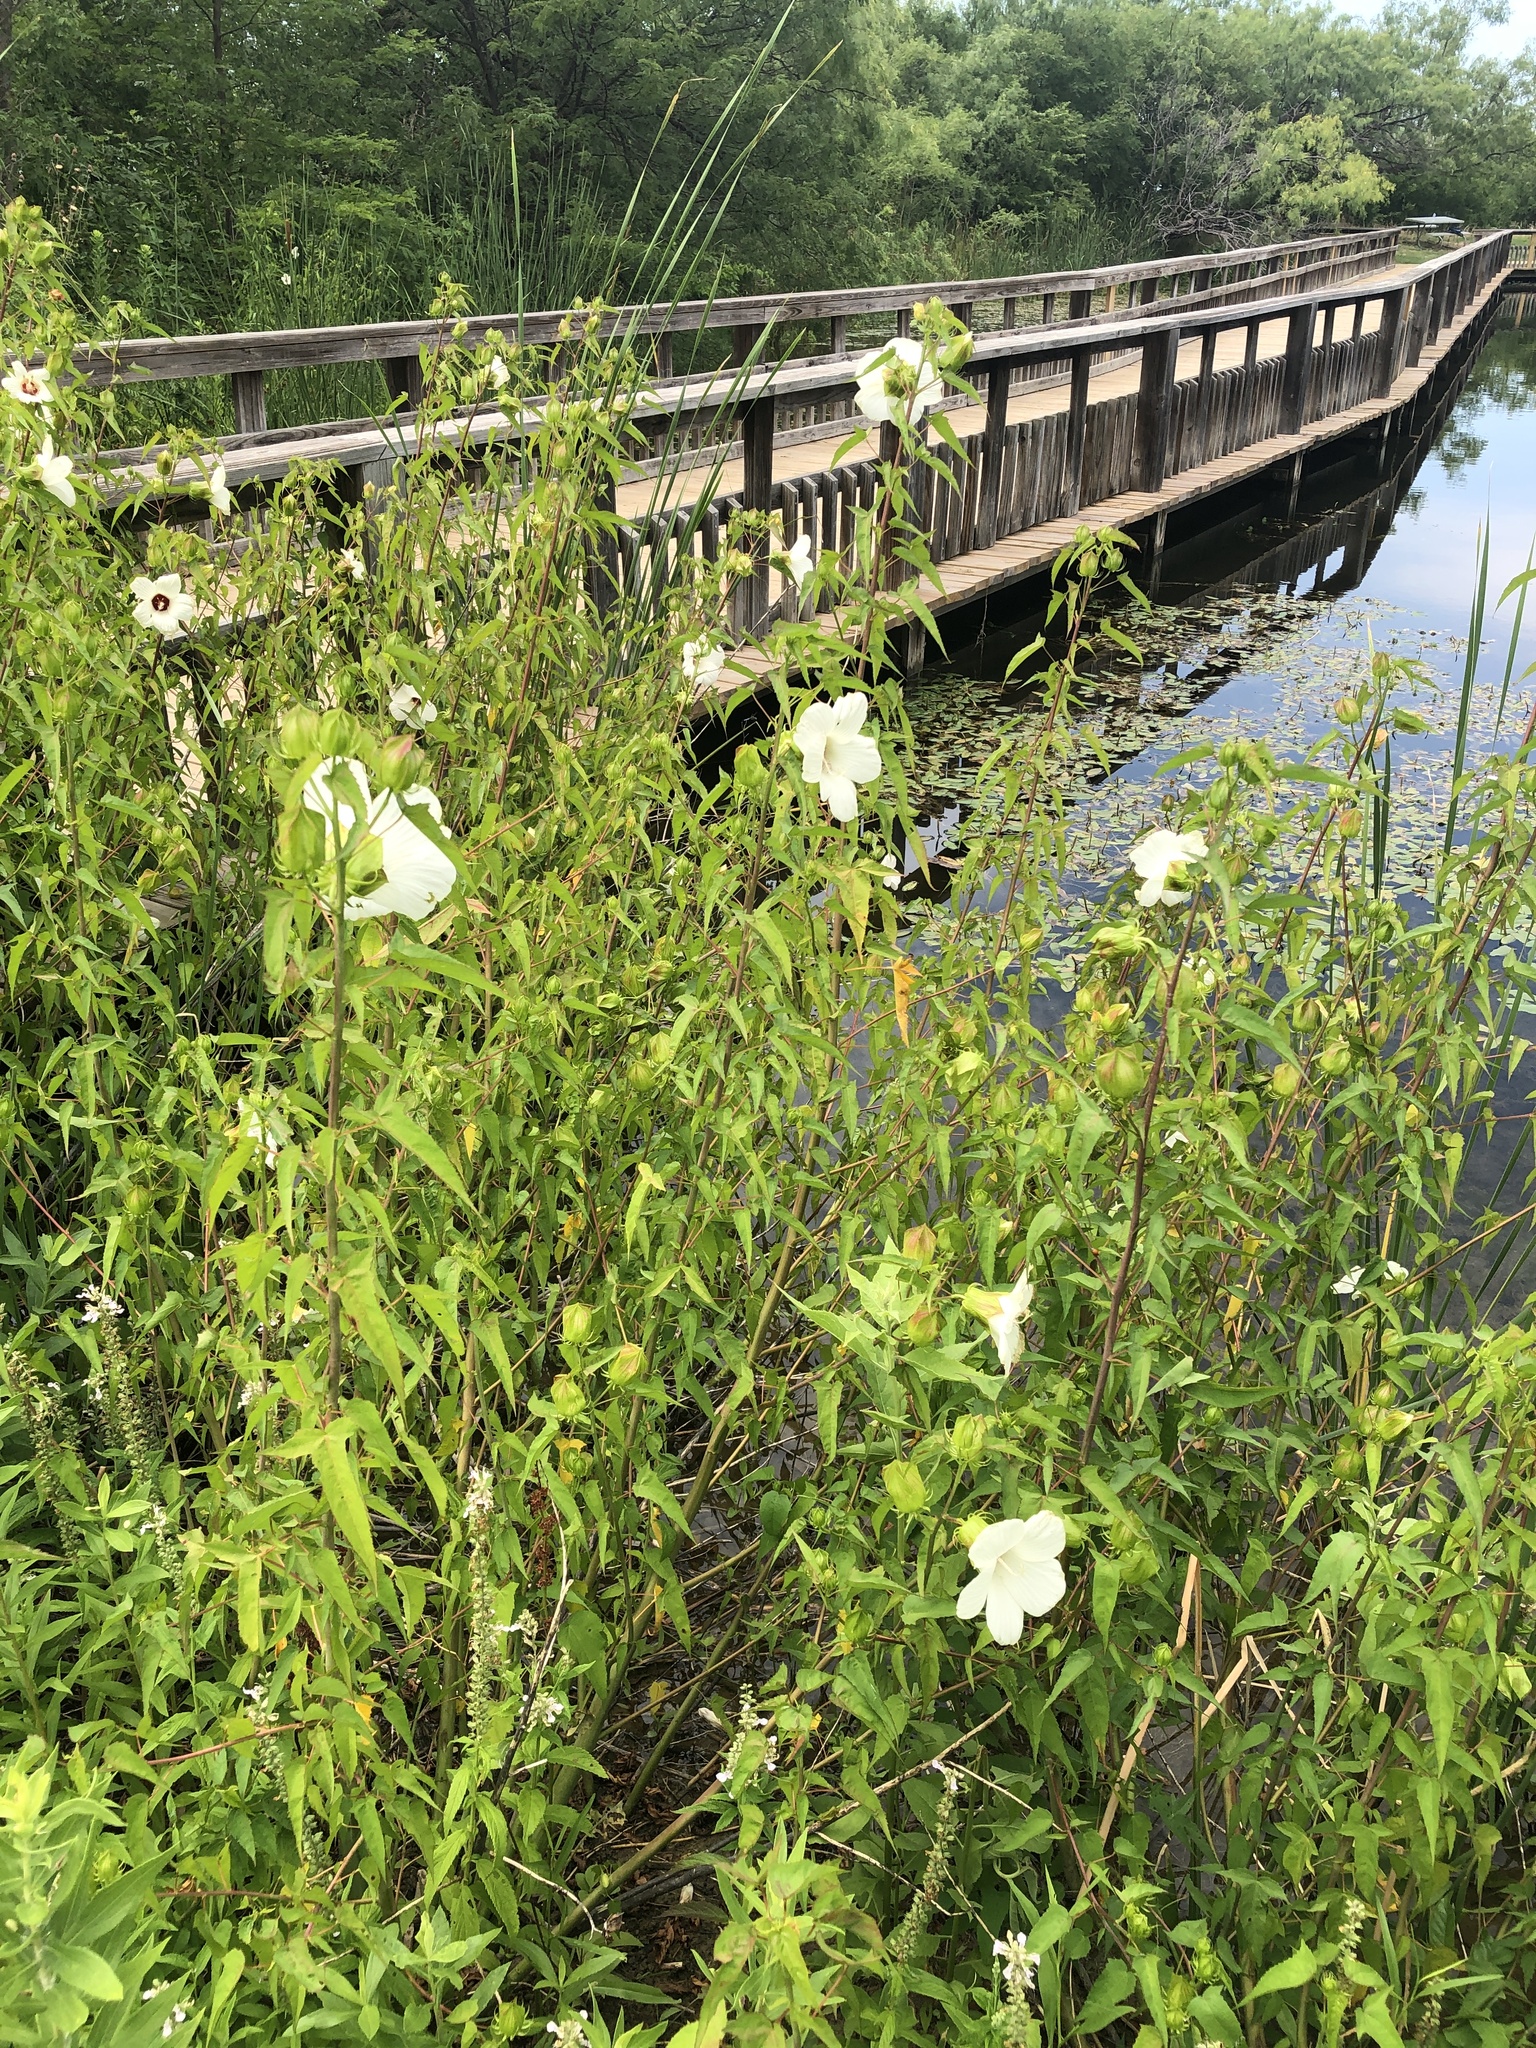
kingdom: Plantae
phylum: Tracheophyta
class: Magnoliopsida
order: Malvales
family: Malvaceae
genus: Hibiscus
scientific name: Hibiscus laevis
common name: Scarlet rose-mallow
